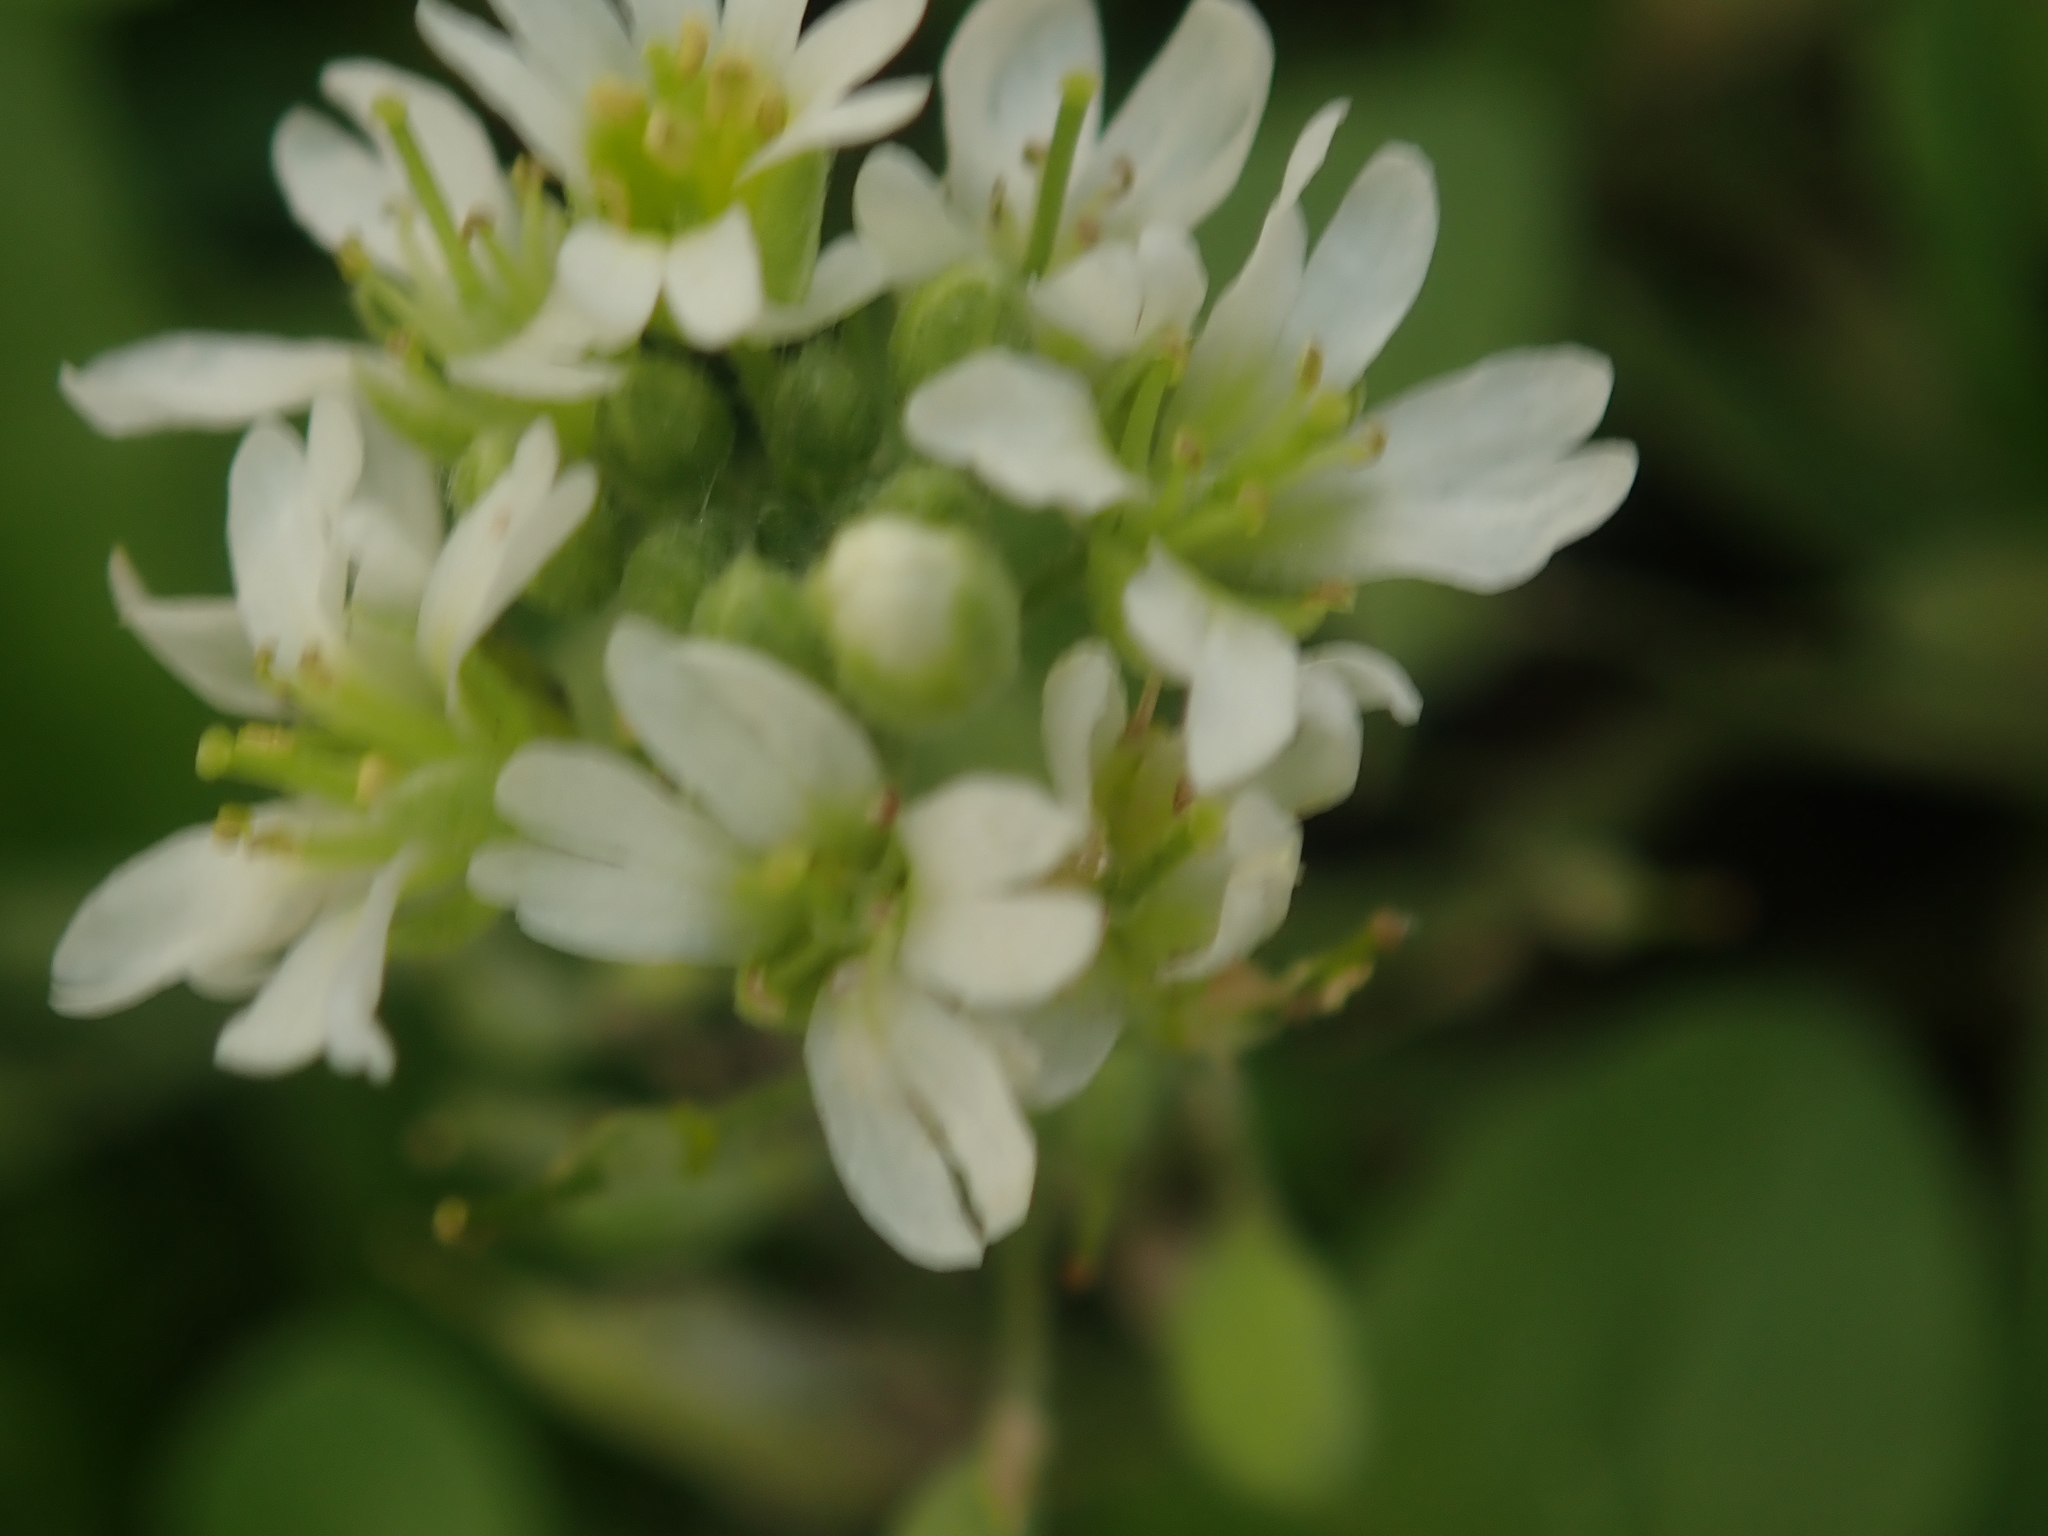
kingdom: Plantae
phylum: Tracheophyta
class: Magnoliopsida
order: Brassicales
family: Brassicaceae
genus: Berteroa
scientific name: Berteroa incana
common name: Hoary alison
